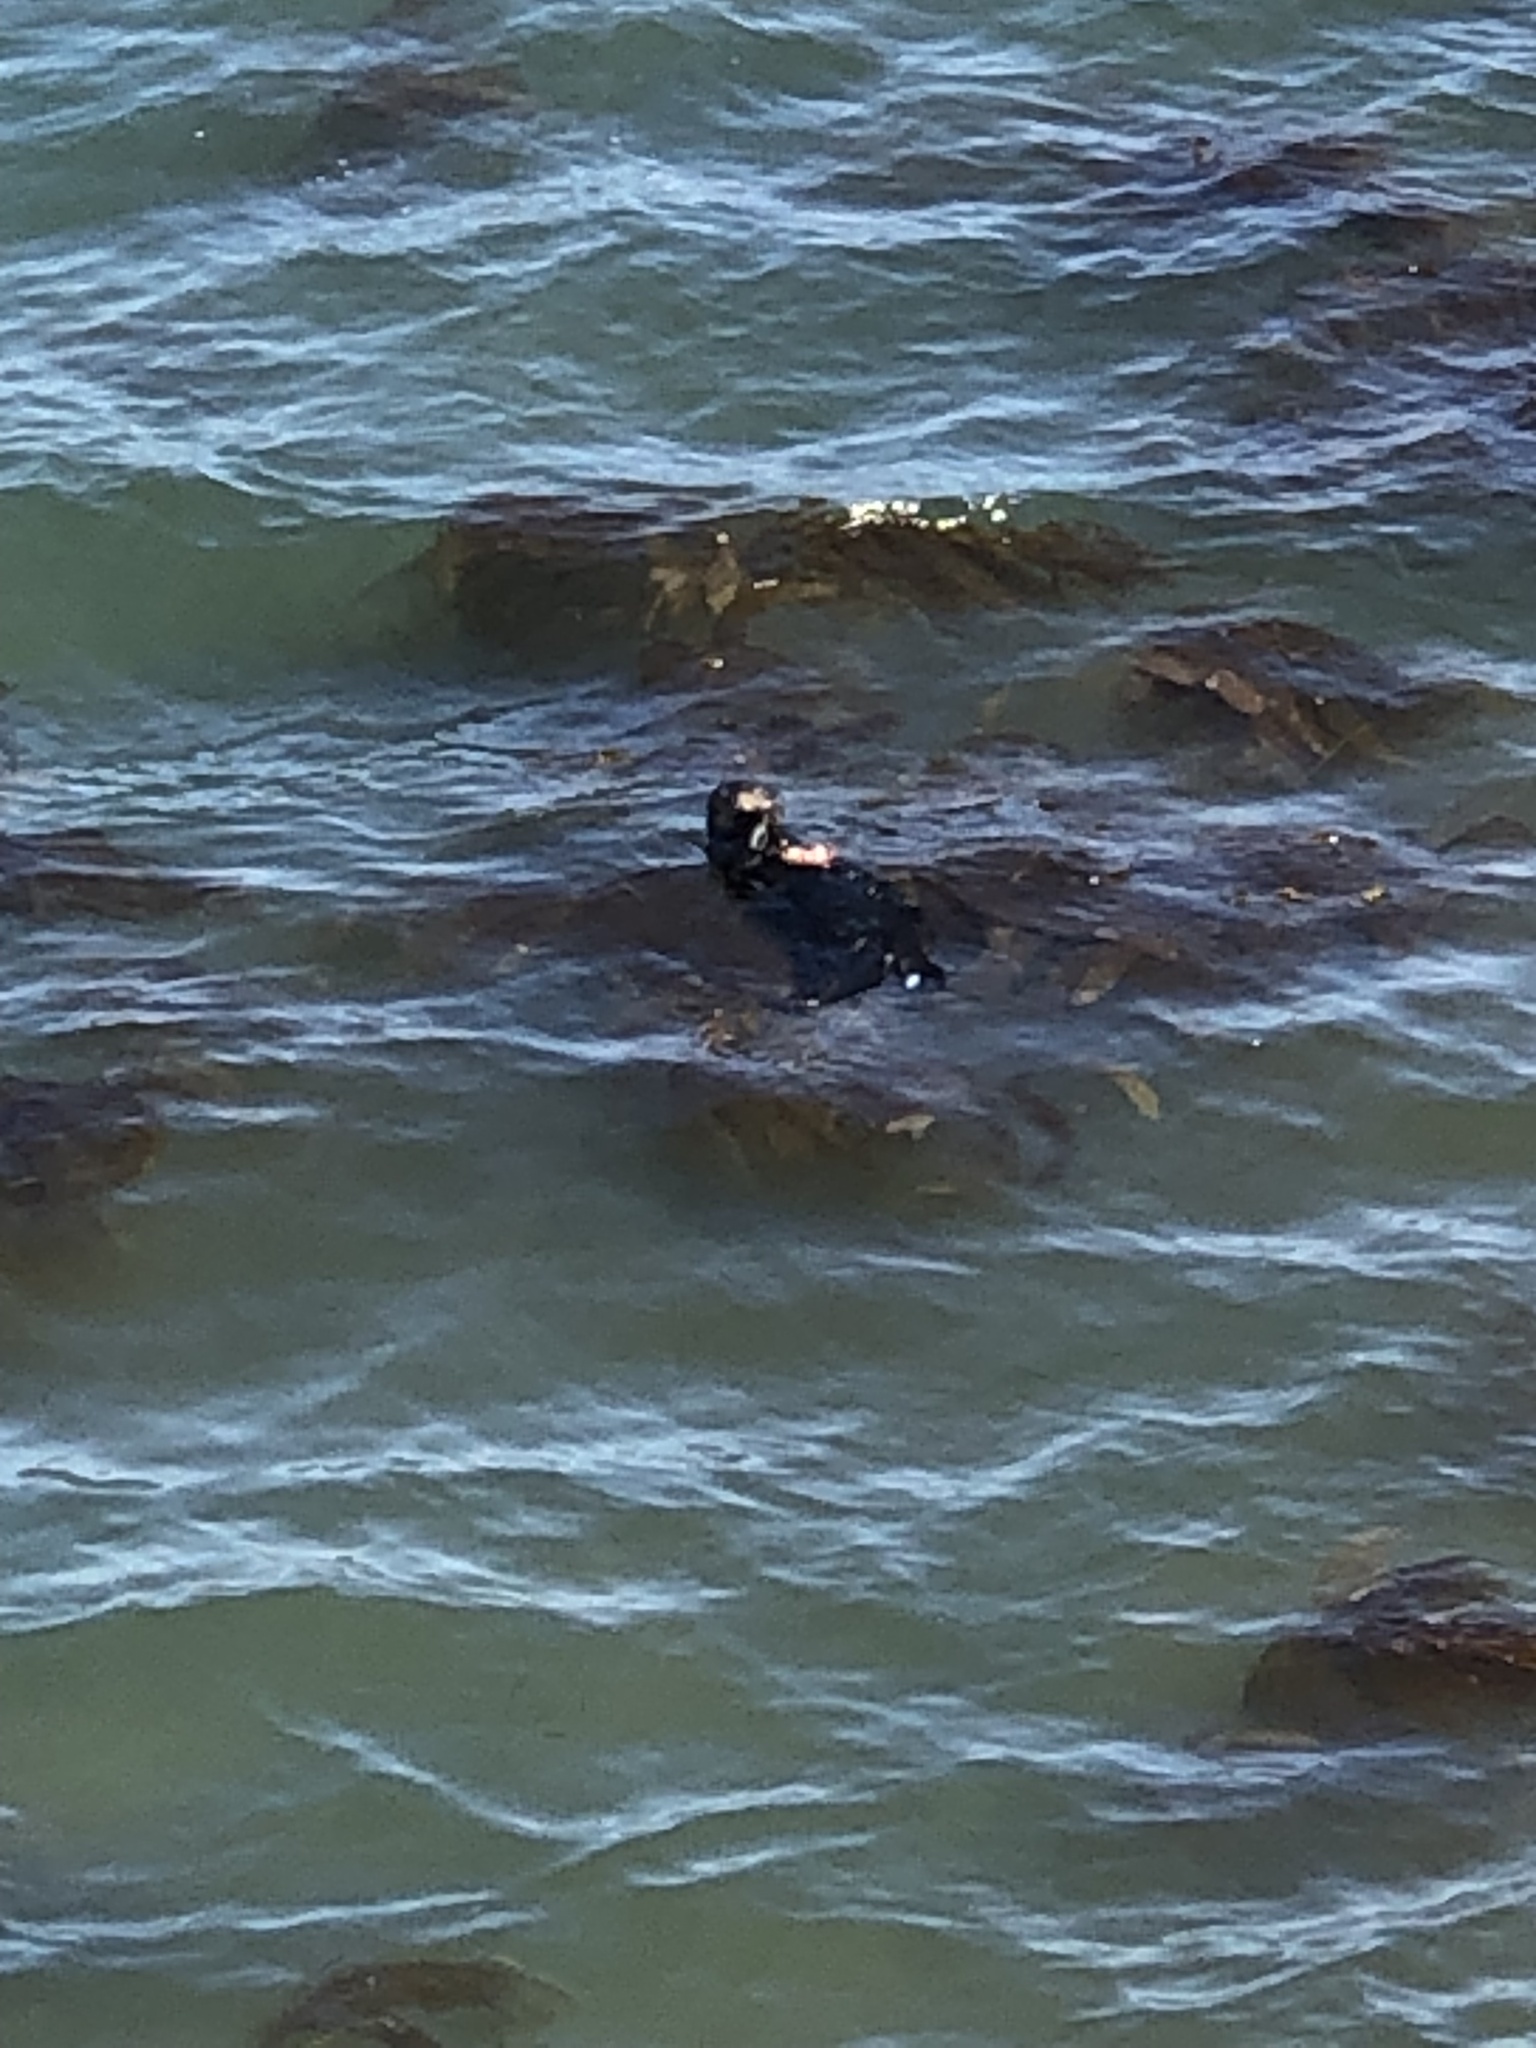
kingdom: Animalia
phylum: Chordata
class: Mammalia
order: Carnivora
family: Mustelidae
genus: Enhydra
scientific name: Enhydra lutris
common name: Sea otter
